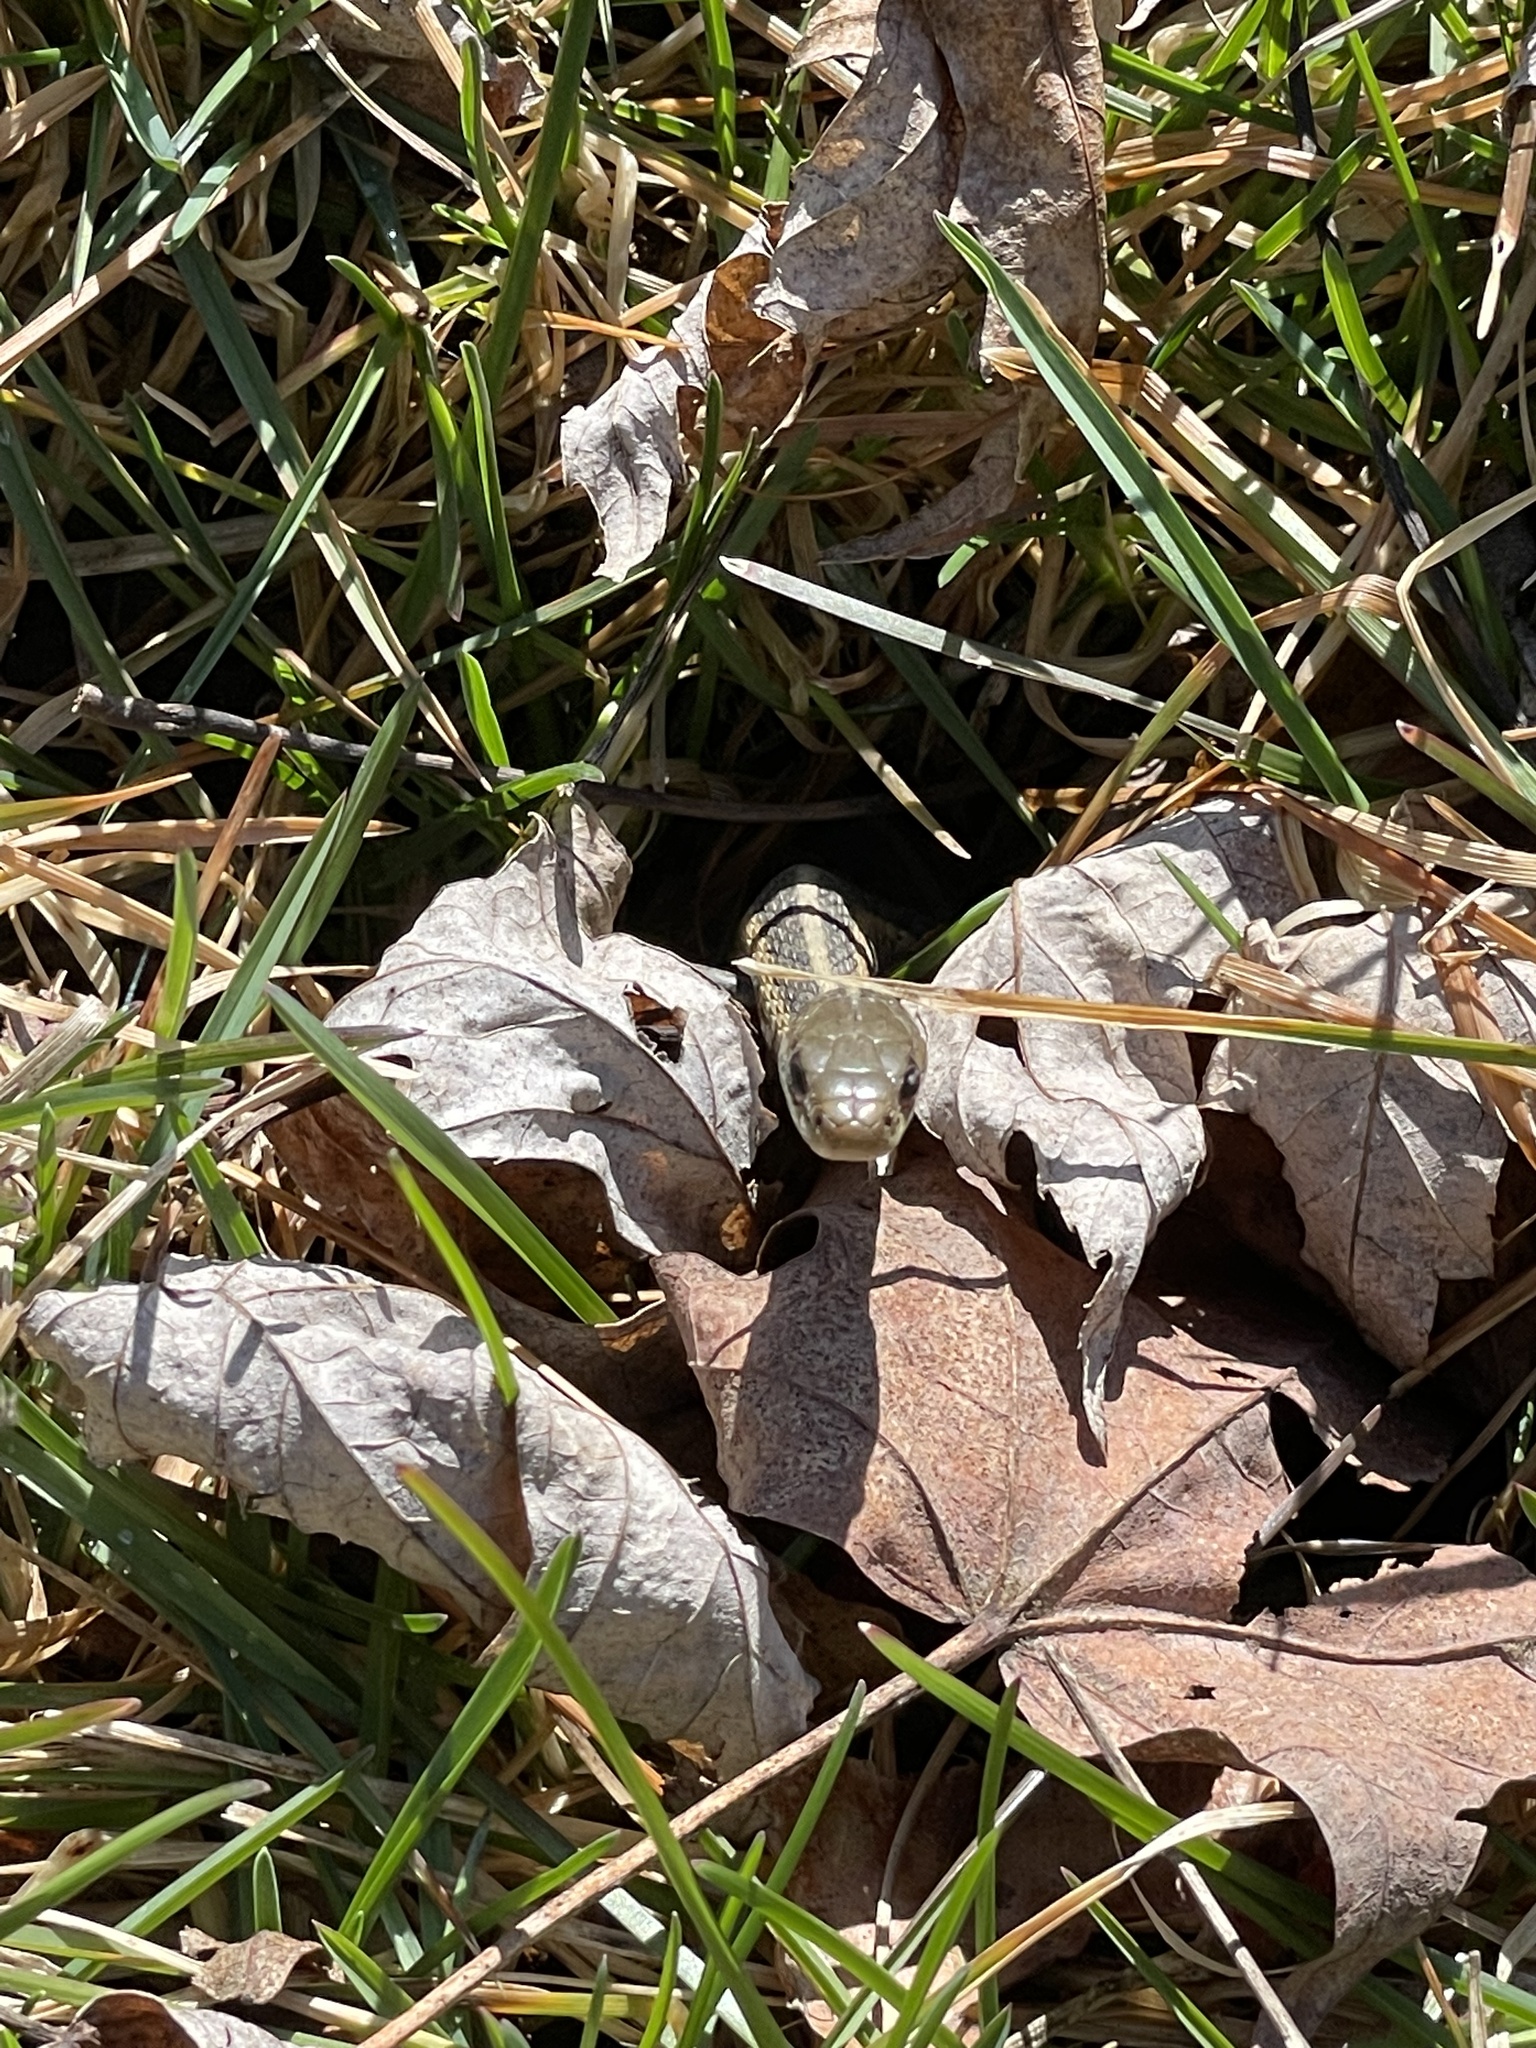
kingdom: Animalia
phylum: Chordata
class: Squamata
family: Colubridae
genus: Thamnophis
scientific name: Thamnophis sirtalis
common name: Common garter snake
